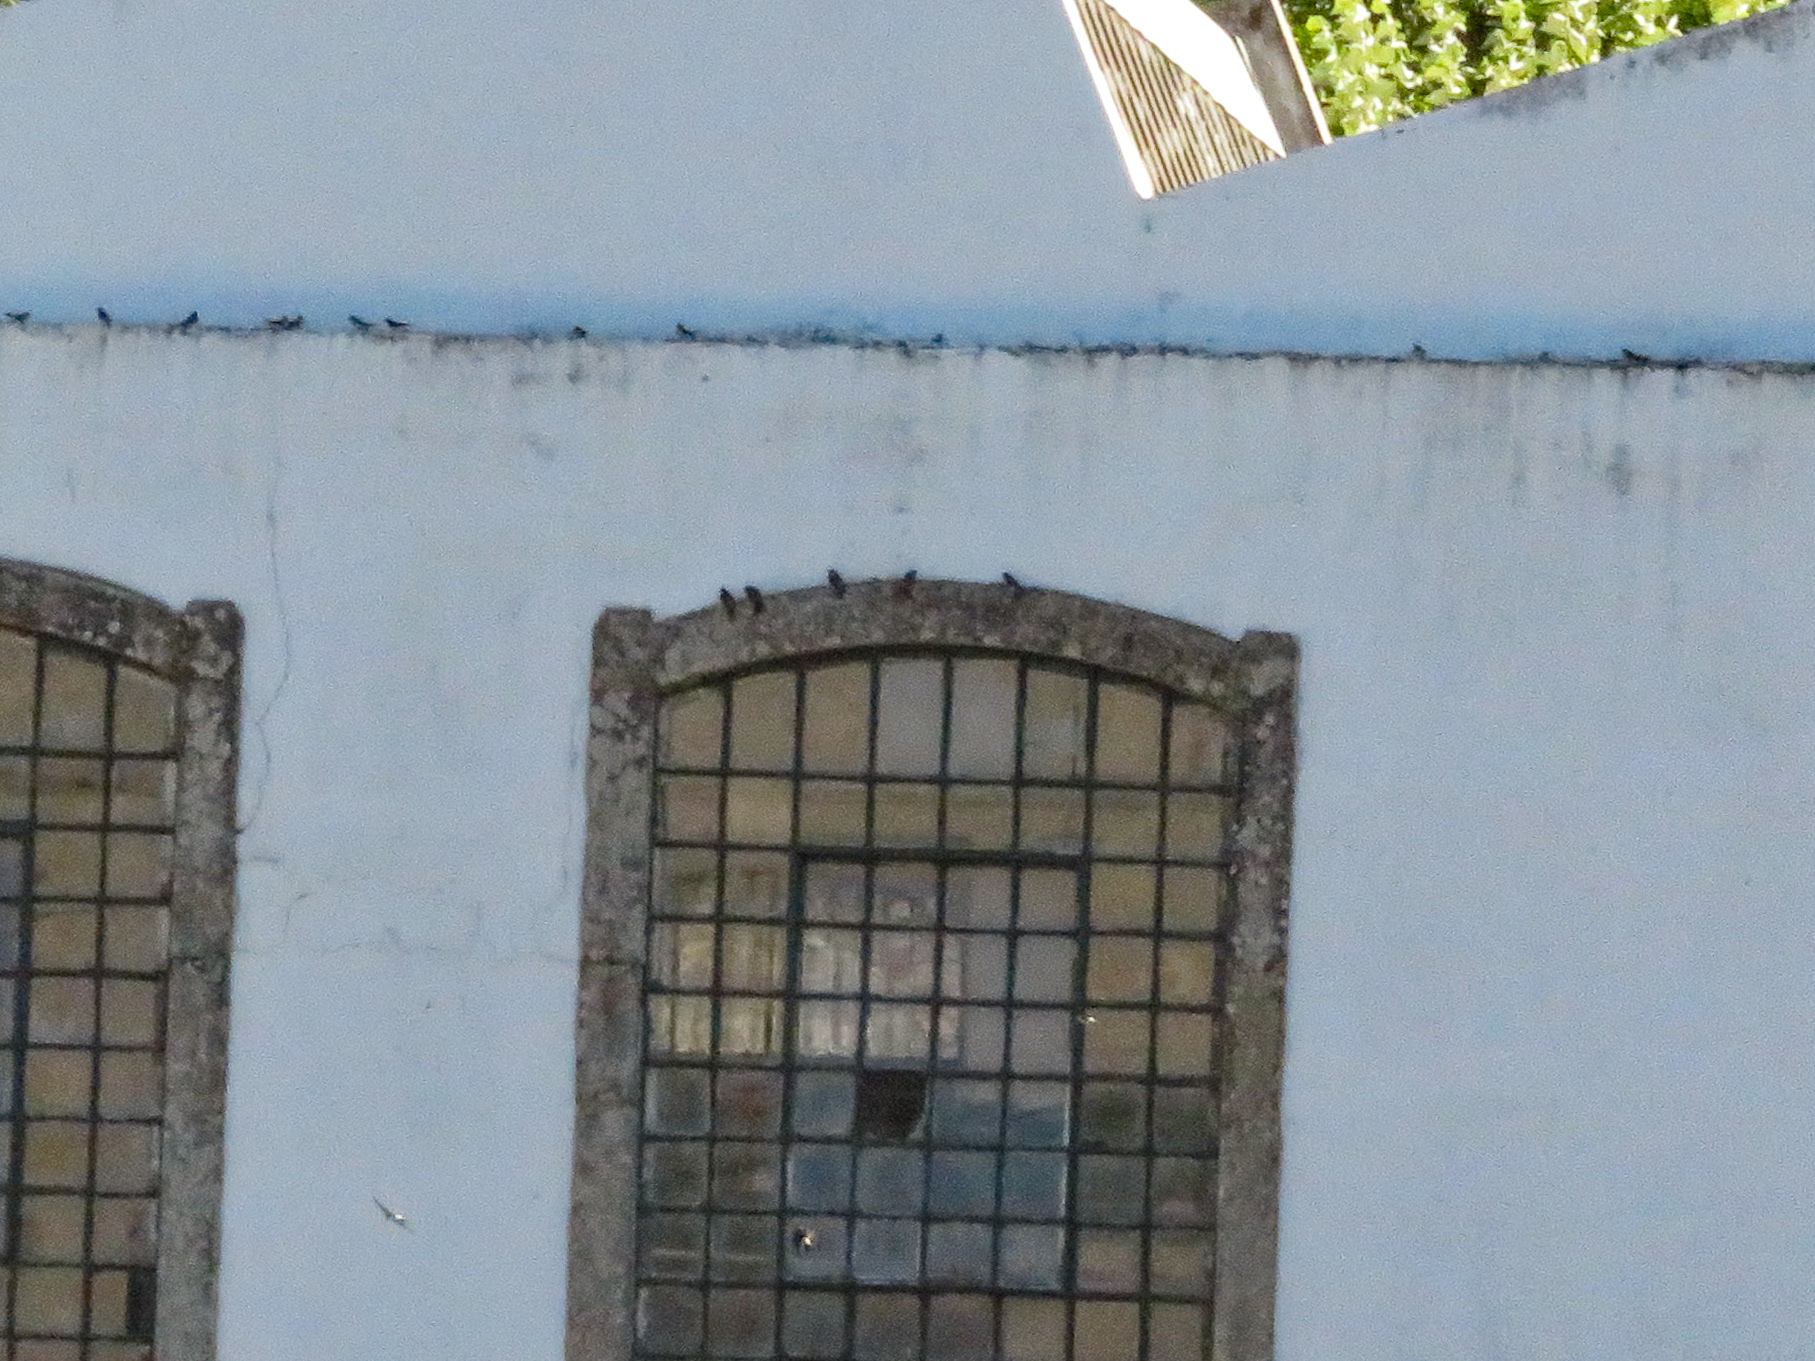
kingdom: Animalia
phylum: Chordata
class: Aves
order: Passeriformes
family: Hirundinidae
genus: Delichon
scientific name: Delichon urbicum
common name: Common house martin
